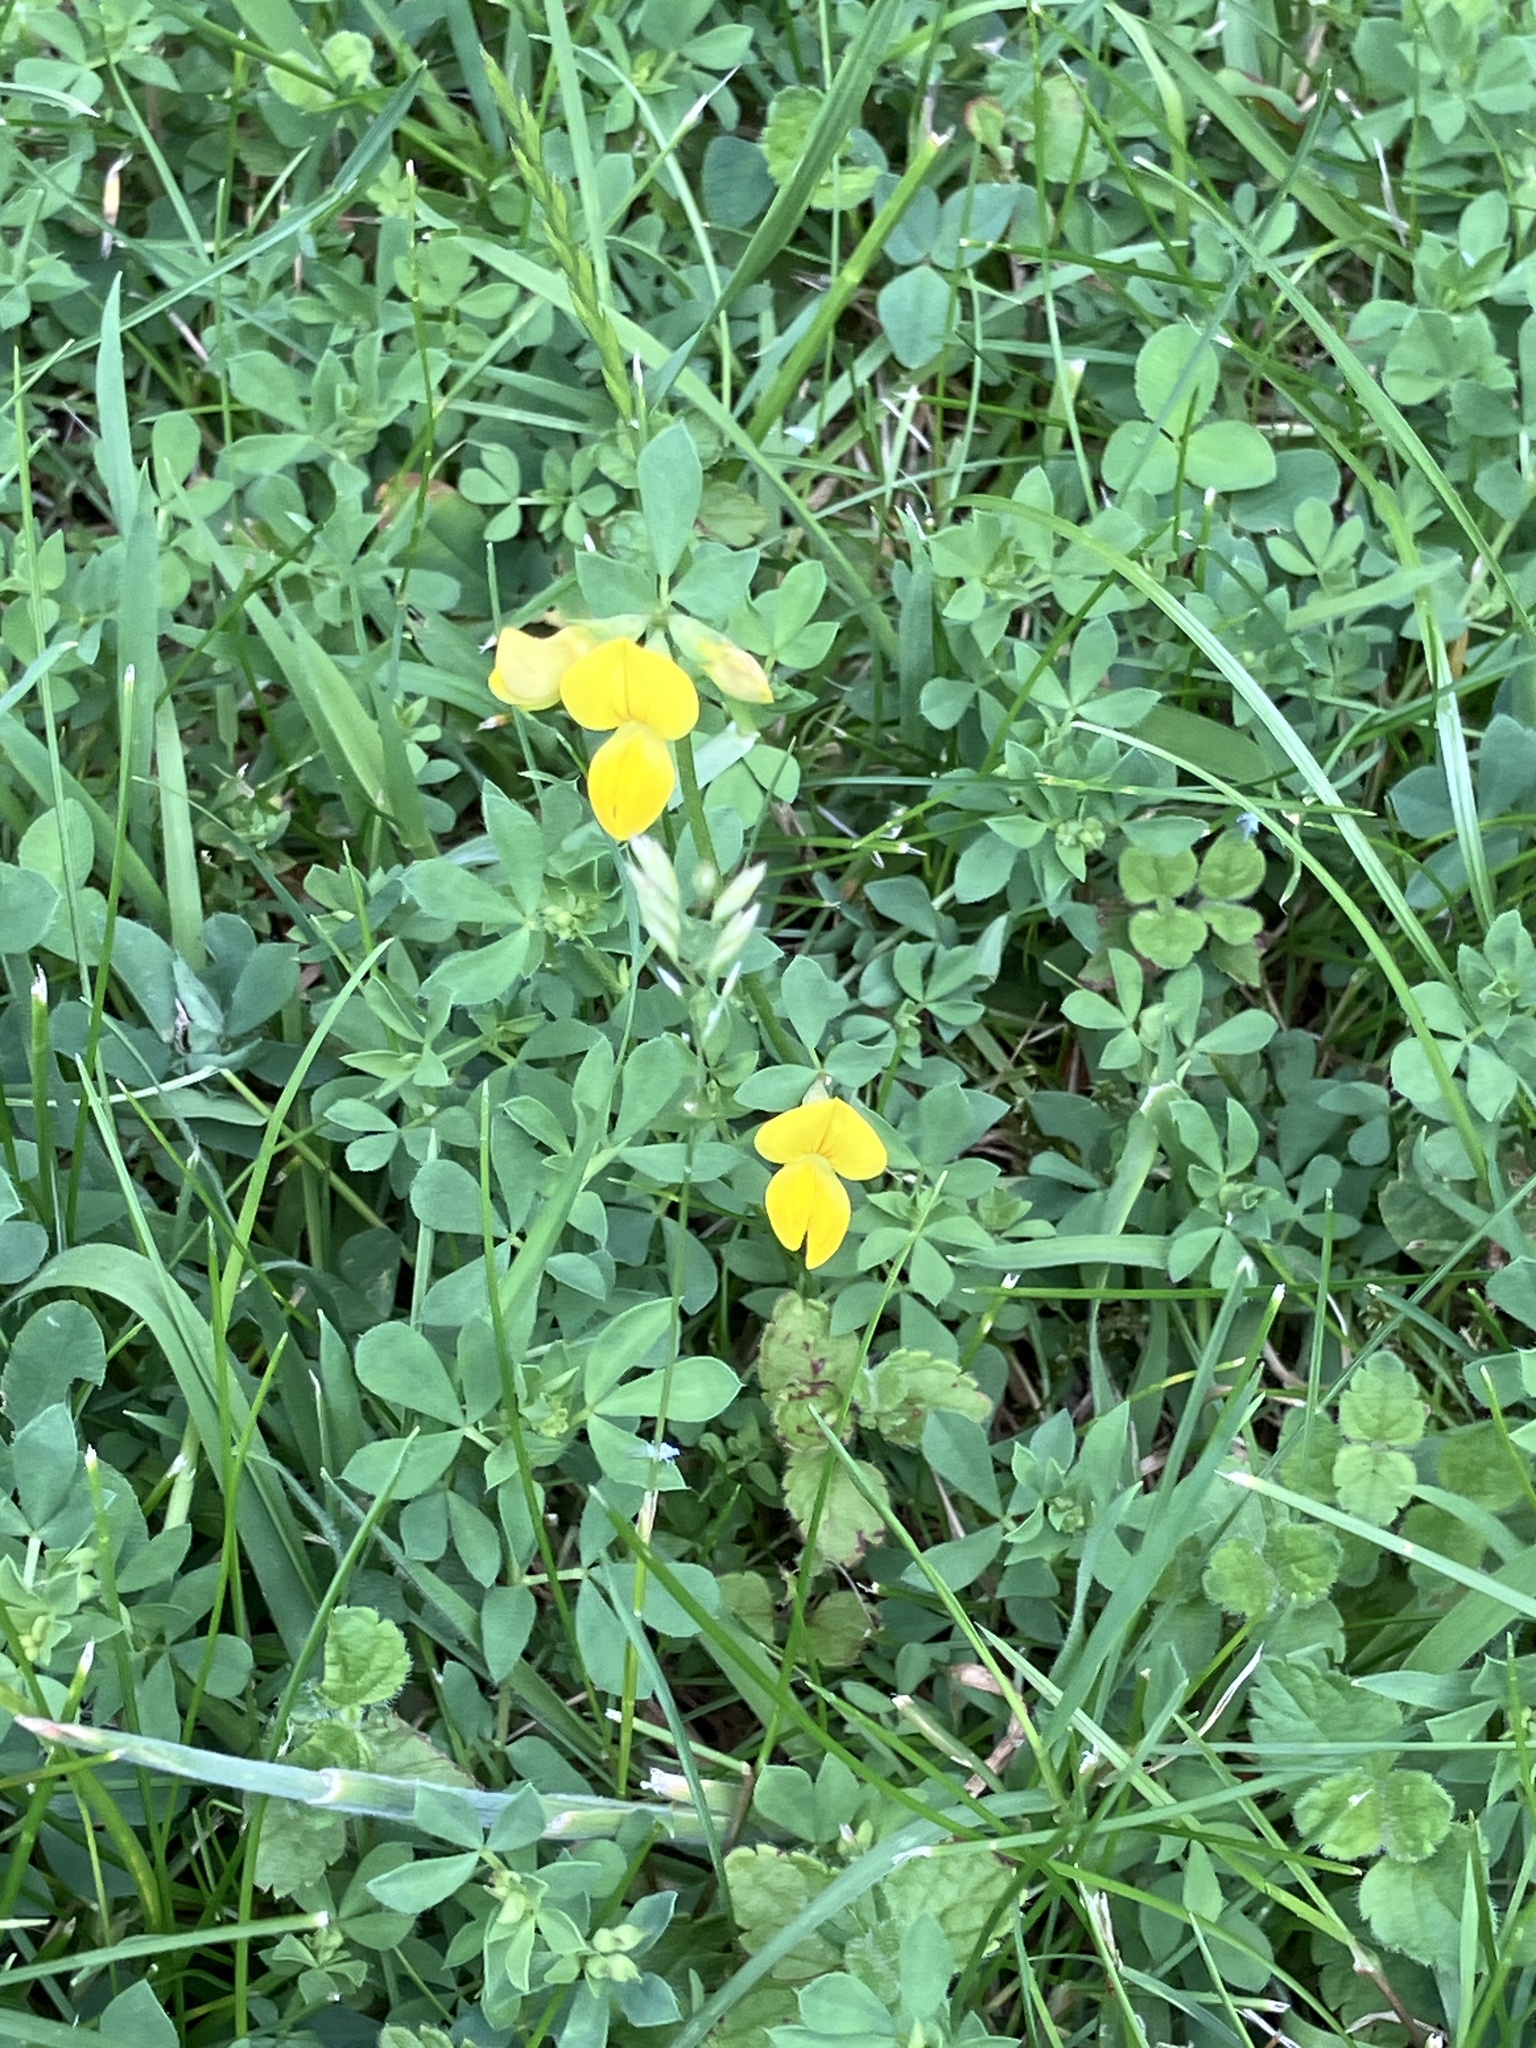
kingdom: Plantae
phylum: Tracheophyta
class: Magnoliopsida
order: Fabales
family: Fabaceae
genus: Lotus
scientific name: Lotus corniculatus
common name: Common bird's-foot-trefoil
